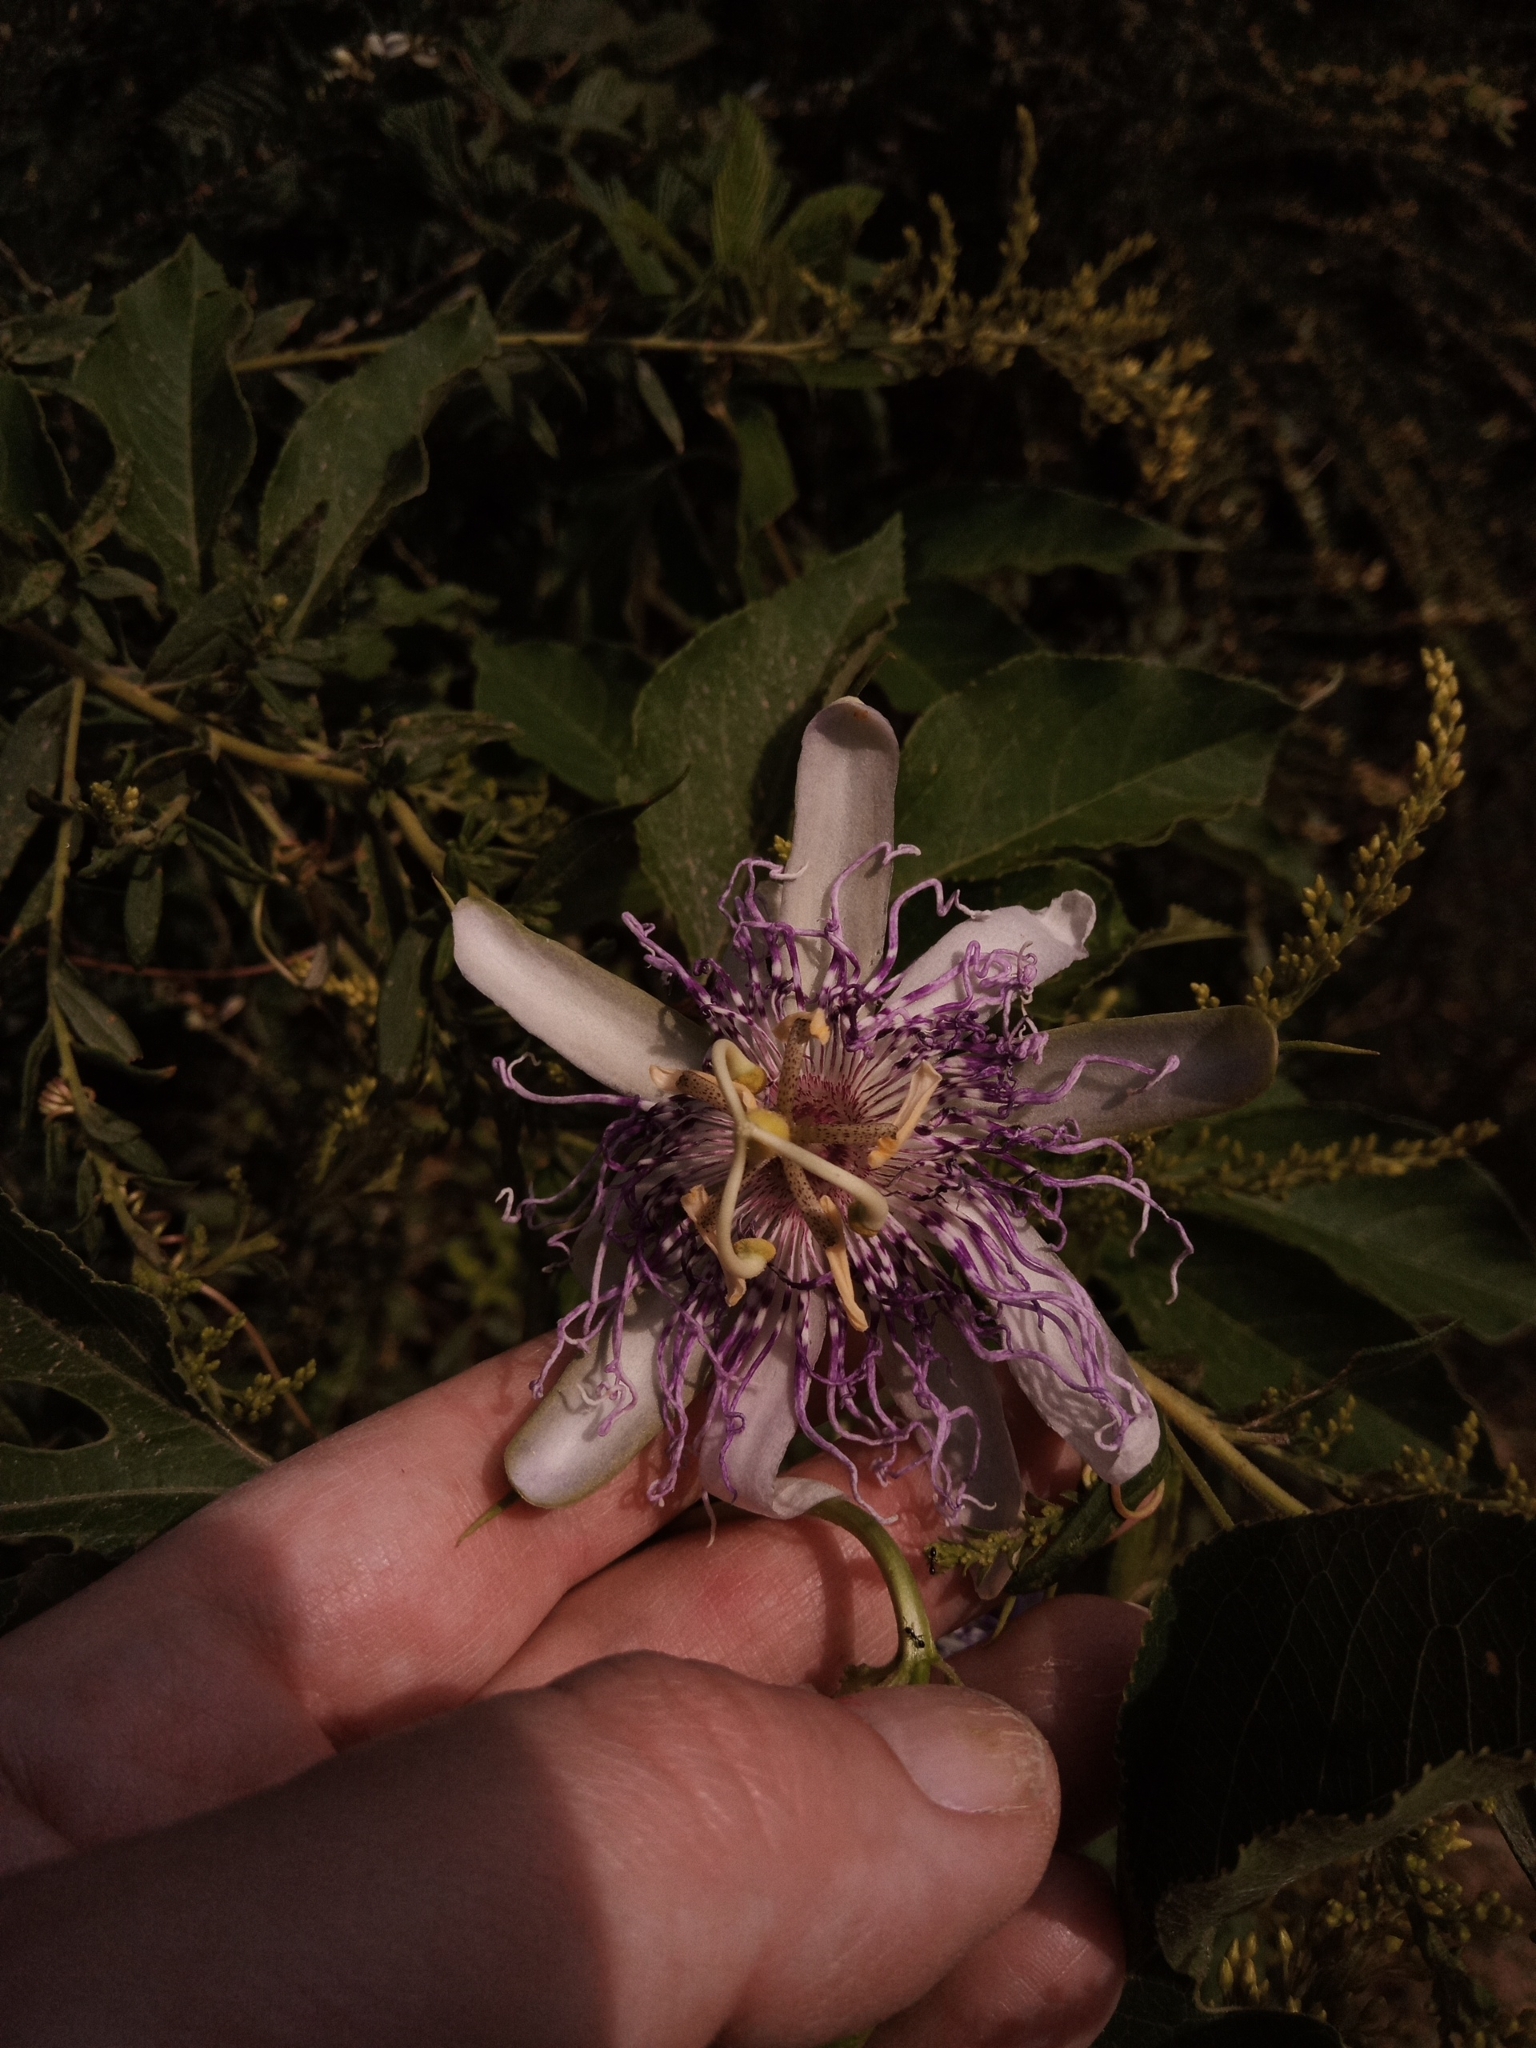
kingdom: Plantae
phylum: Tracheophyta
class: Magnoliopsida
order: Malpighiales
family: Passifloraceae
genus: Passiflora
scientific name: Passiflora incarnata
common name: Apricot-vine
